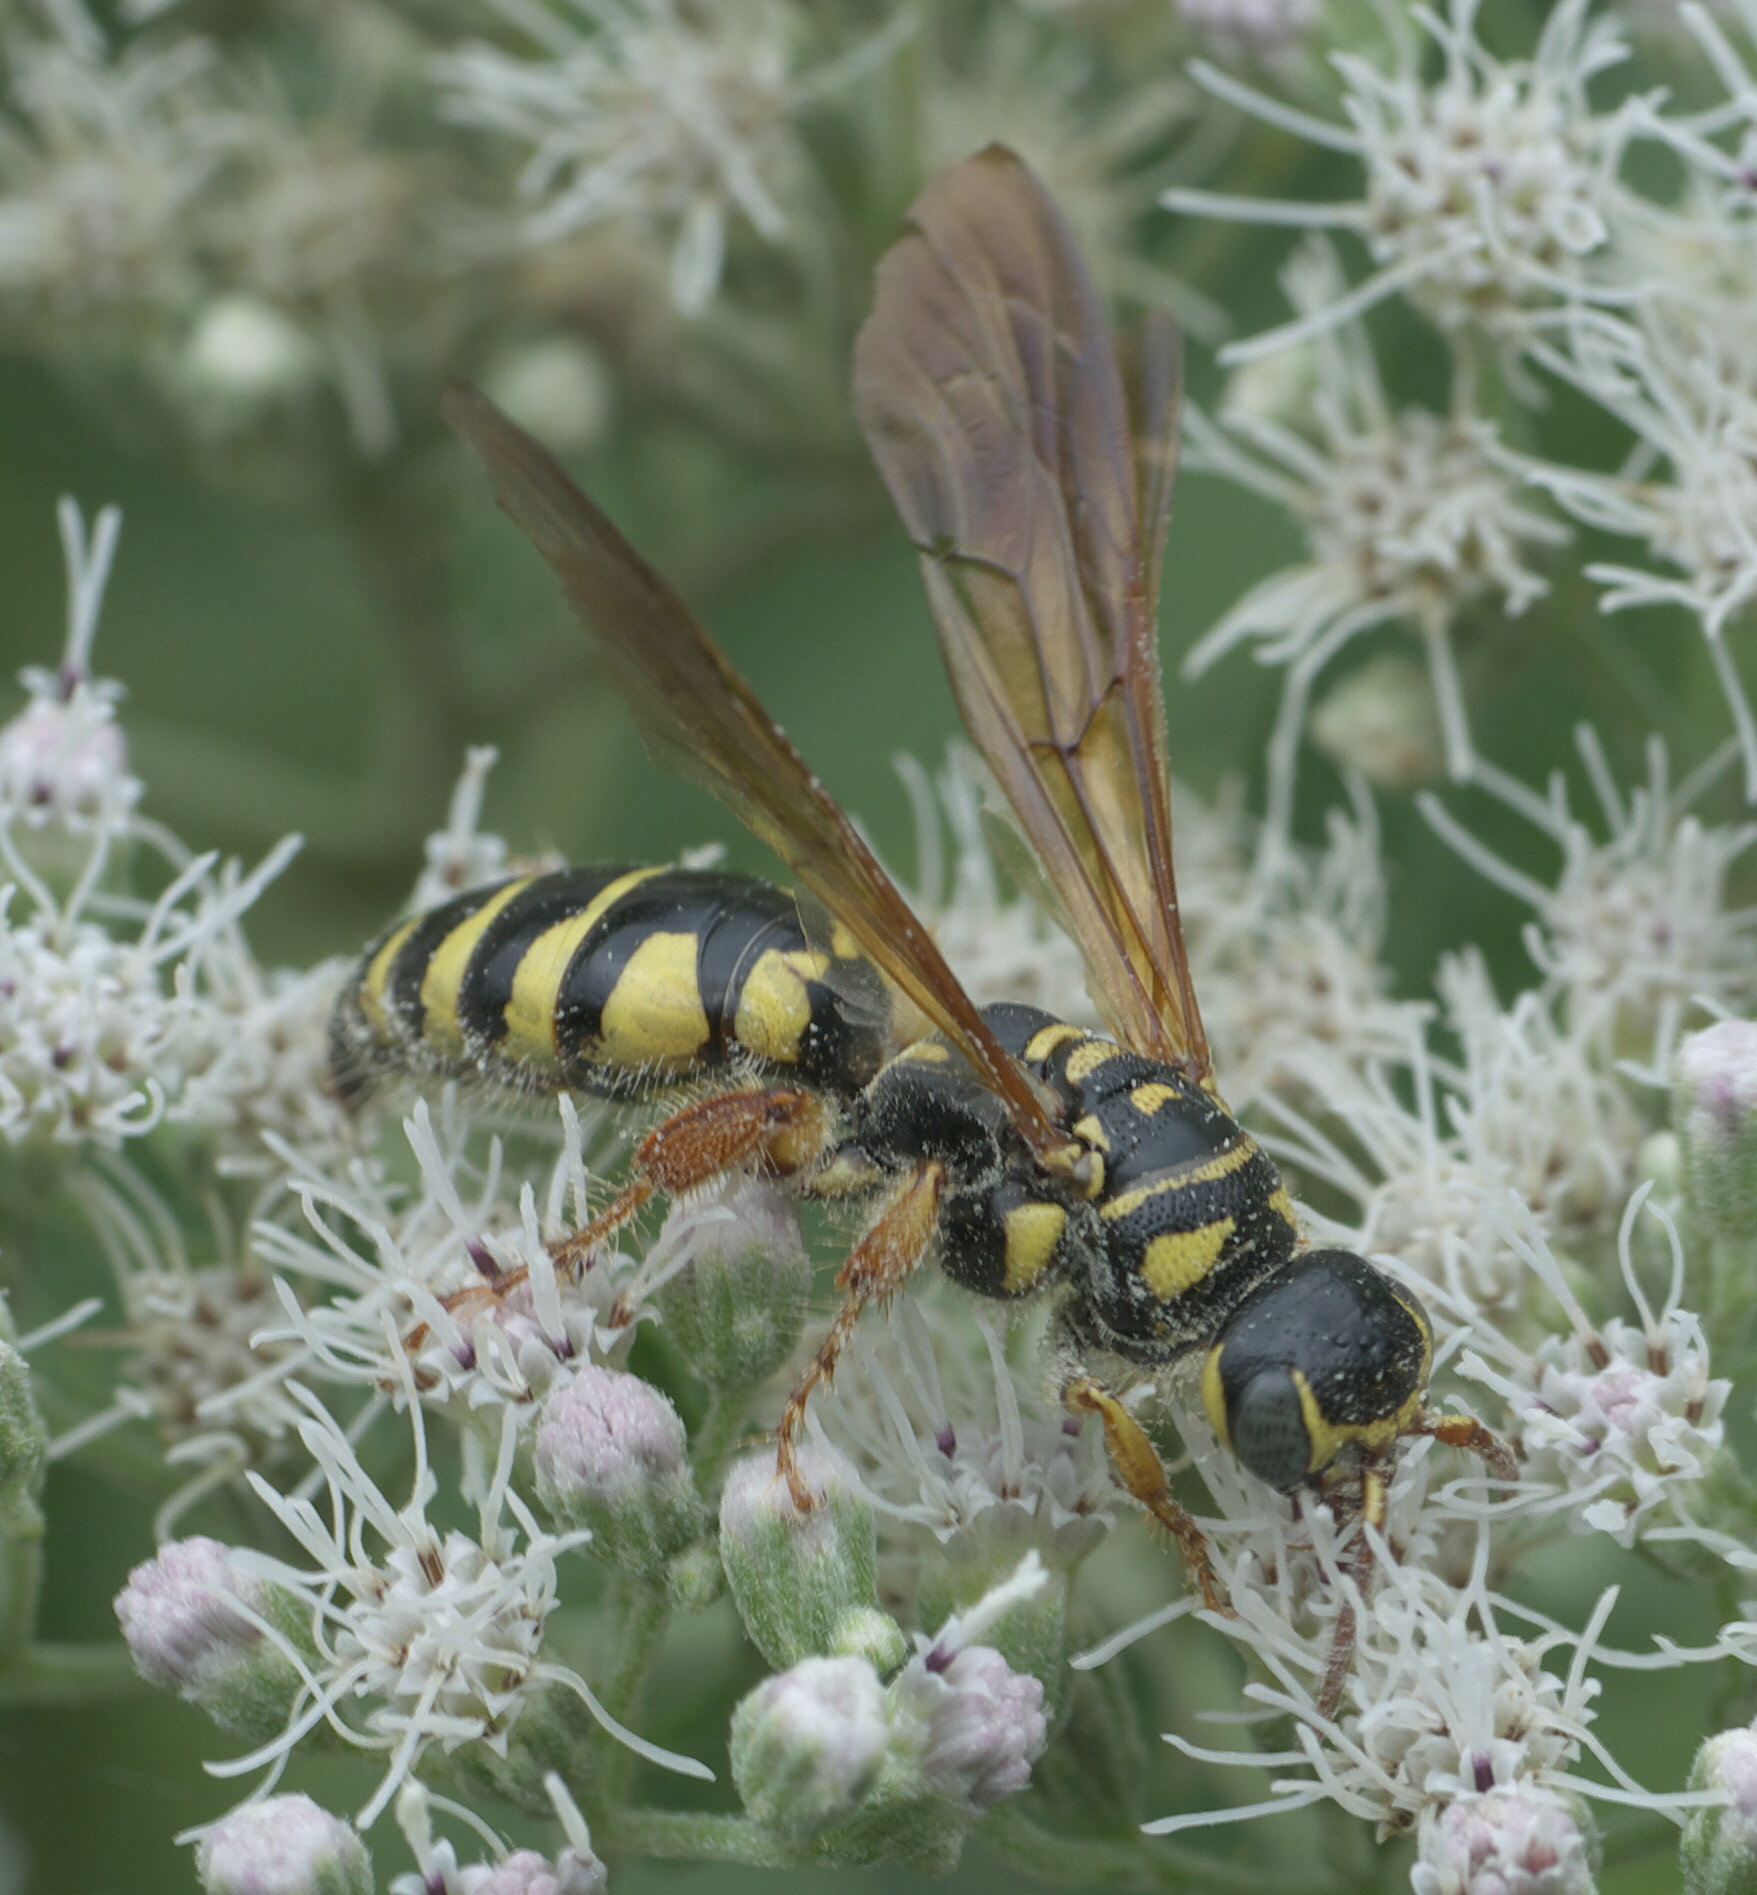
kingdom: Animalia
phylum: Arthropoda
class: Insecta
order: Hymenoptera
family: Tiphiidae
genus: Myzinum
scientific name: Myzinum quinquecinctum
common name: Five-banded thynnid wasp
